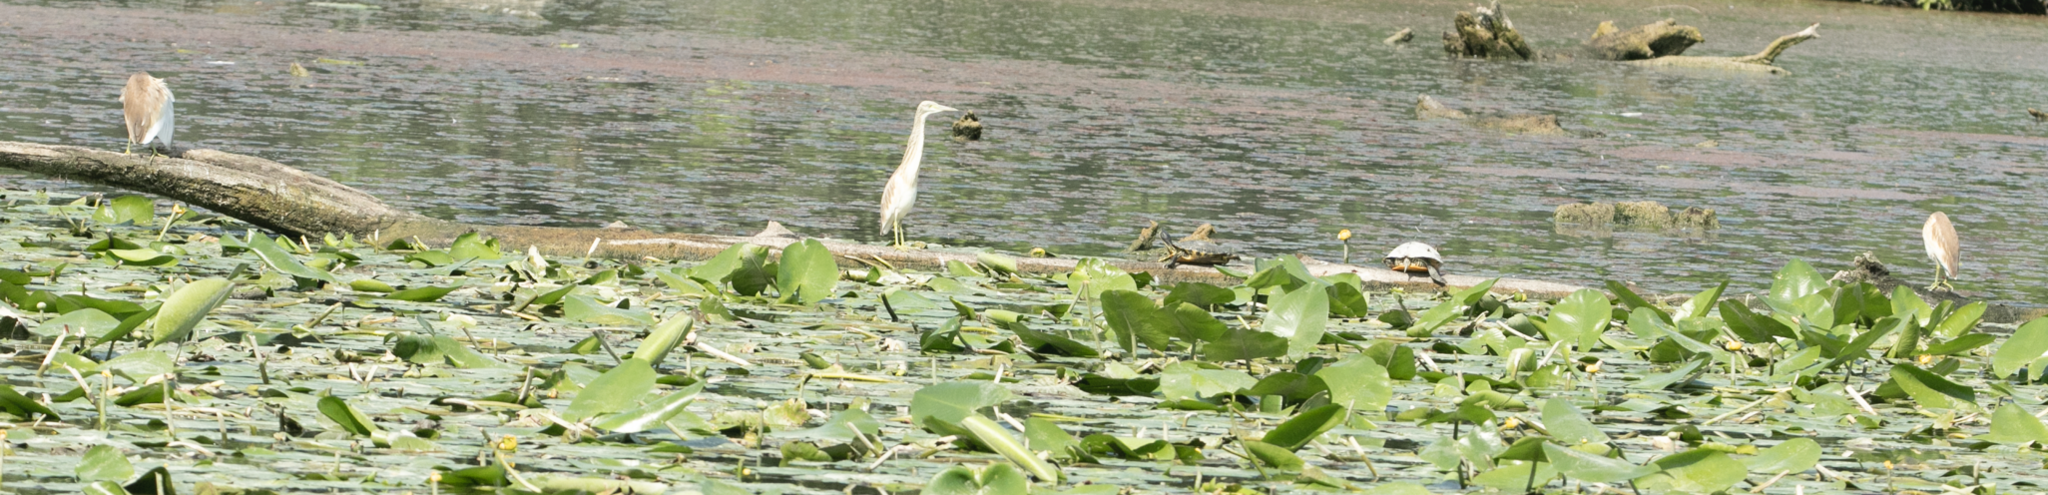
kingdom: Animalia
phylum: Chordata
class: Aves
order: Pelecaniformes
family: Ardeidae
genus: Ardeola
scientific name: Ardeola ralloides
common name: Squacco heron
